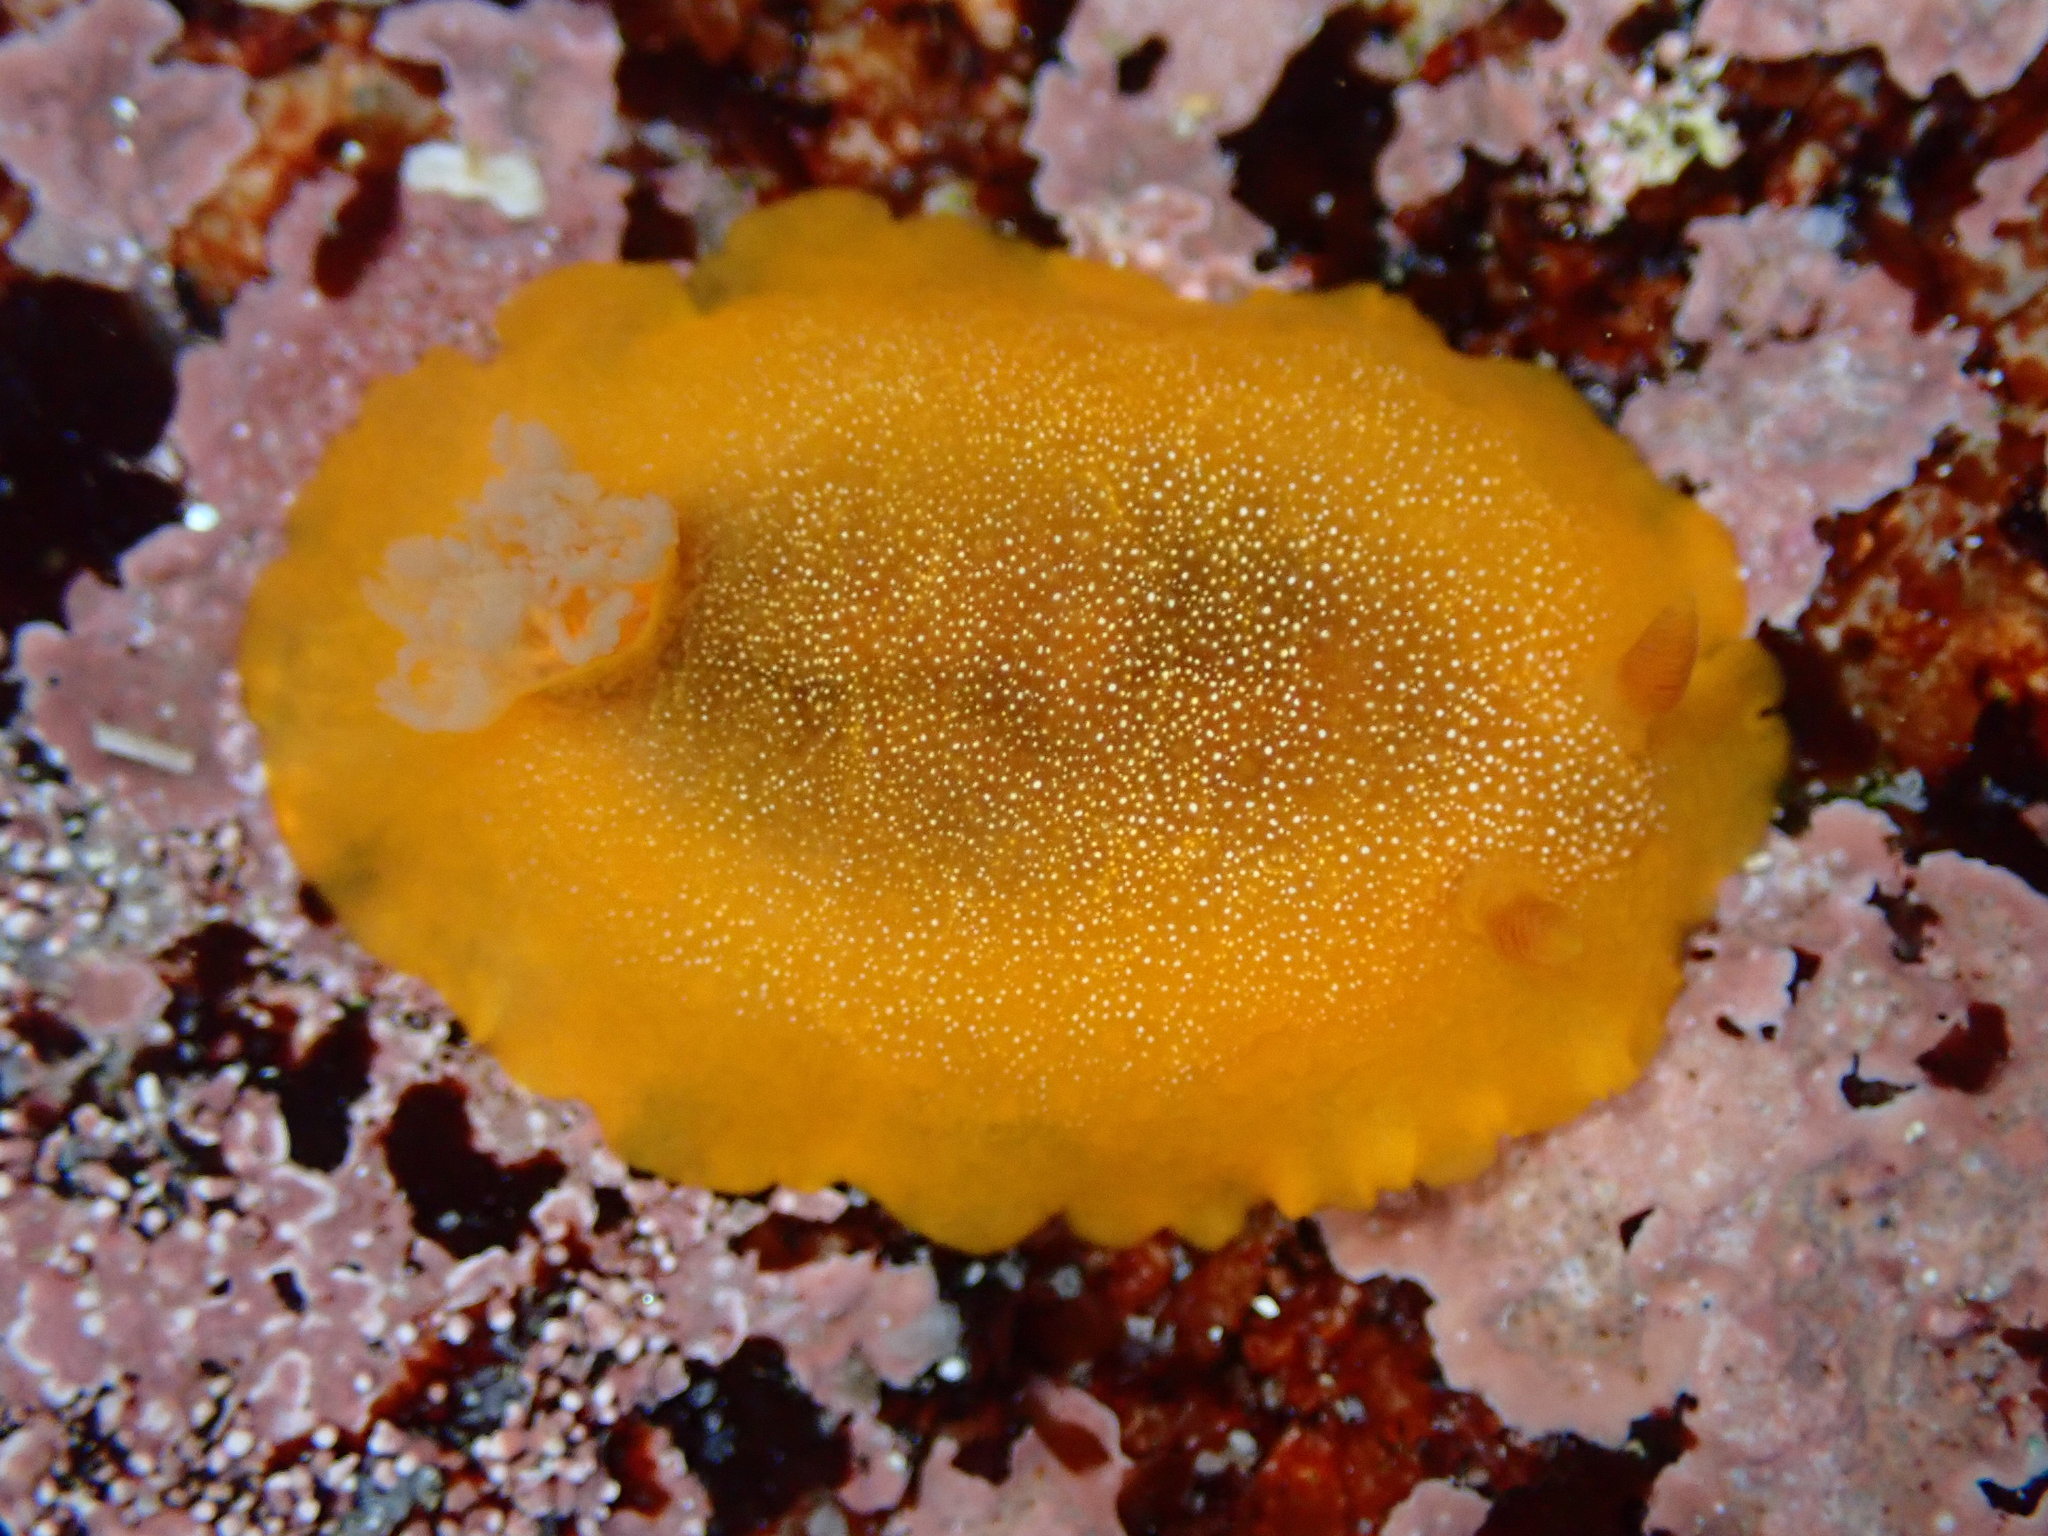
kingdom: Animalia
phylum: Mollusca
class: Gastropoda
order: Nudibranchia
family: Dendrodorididae
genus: Doriopsilla
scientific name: Doriopsilla albopunctata
